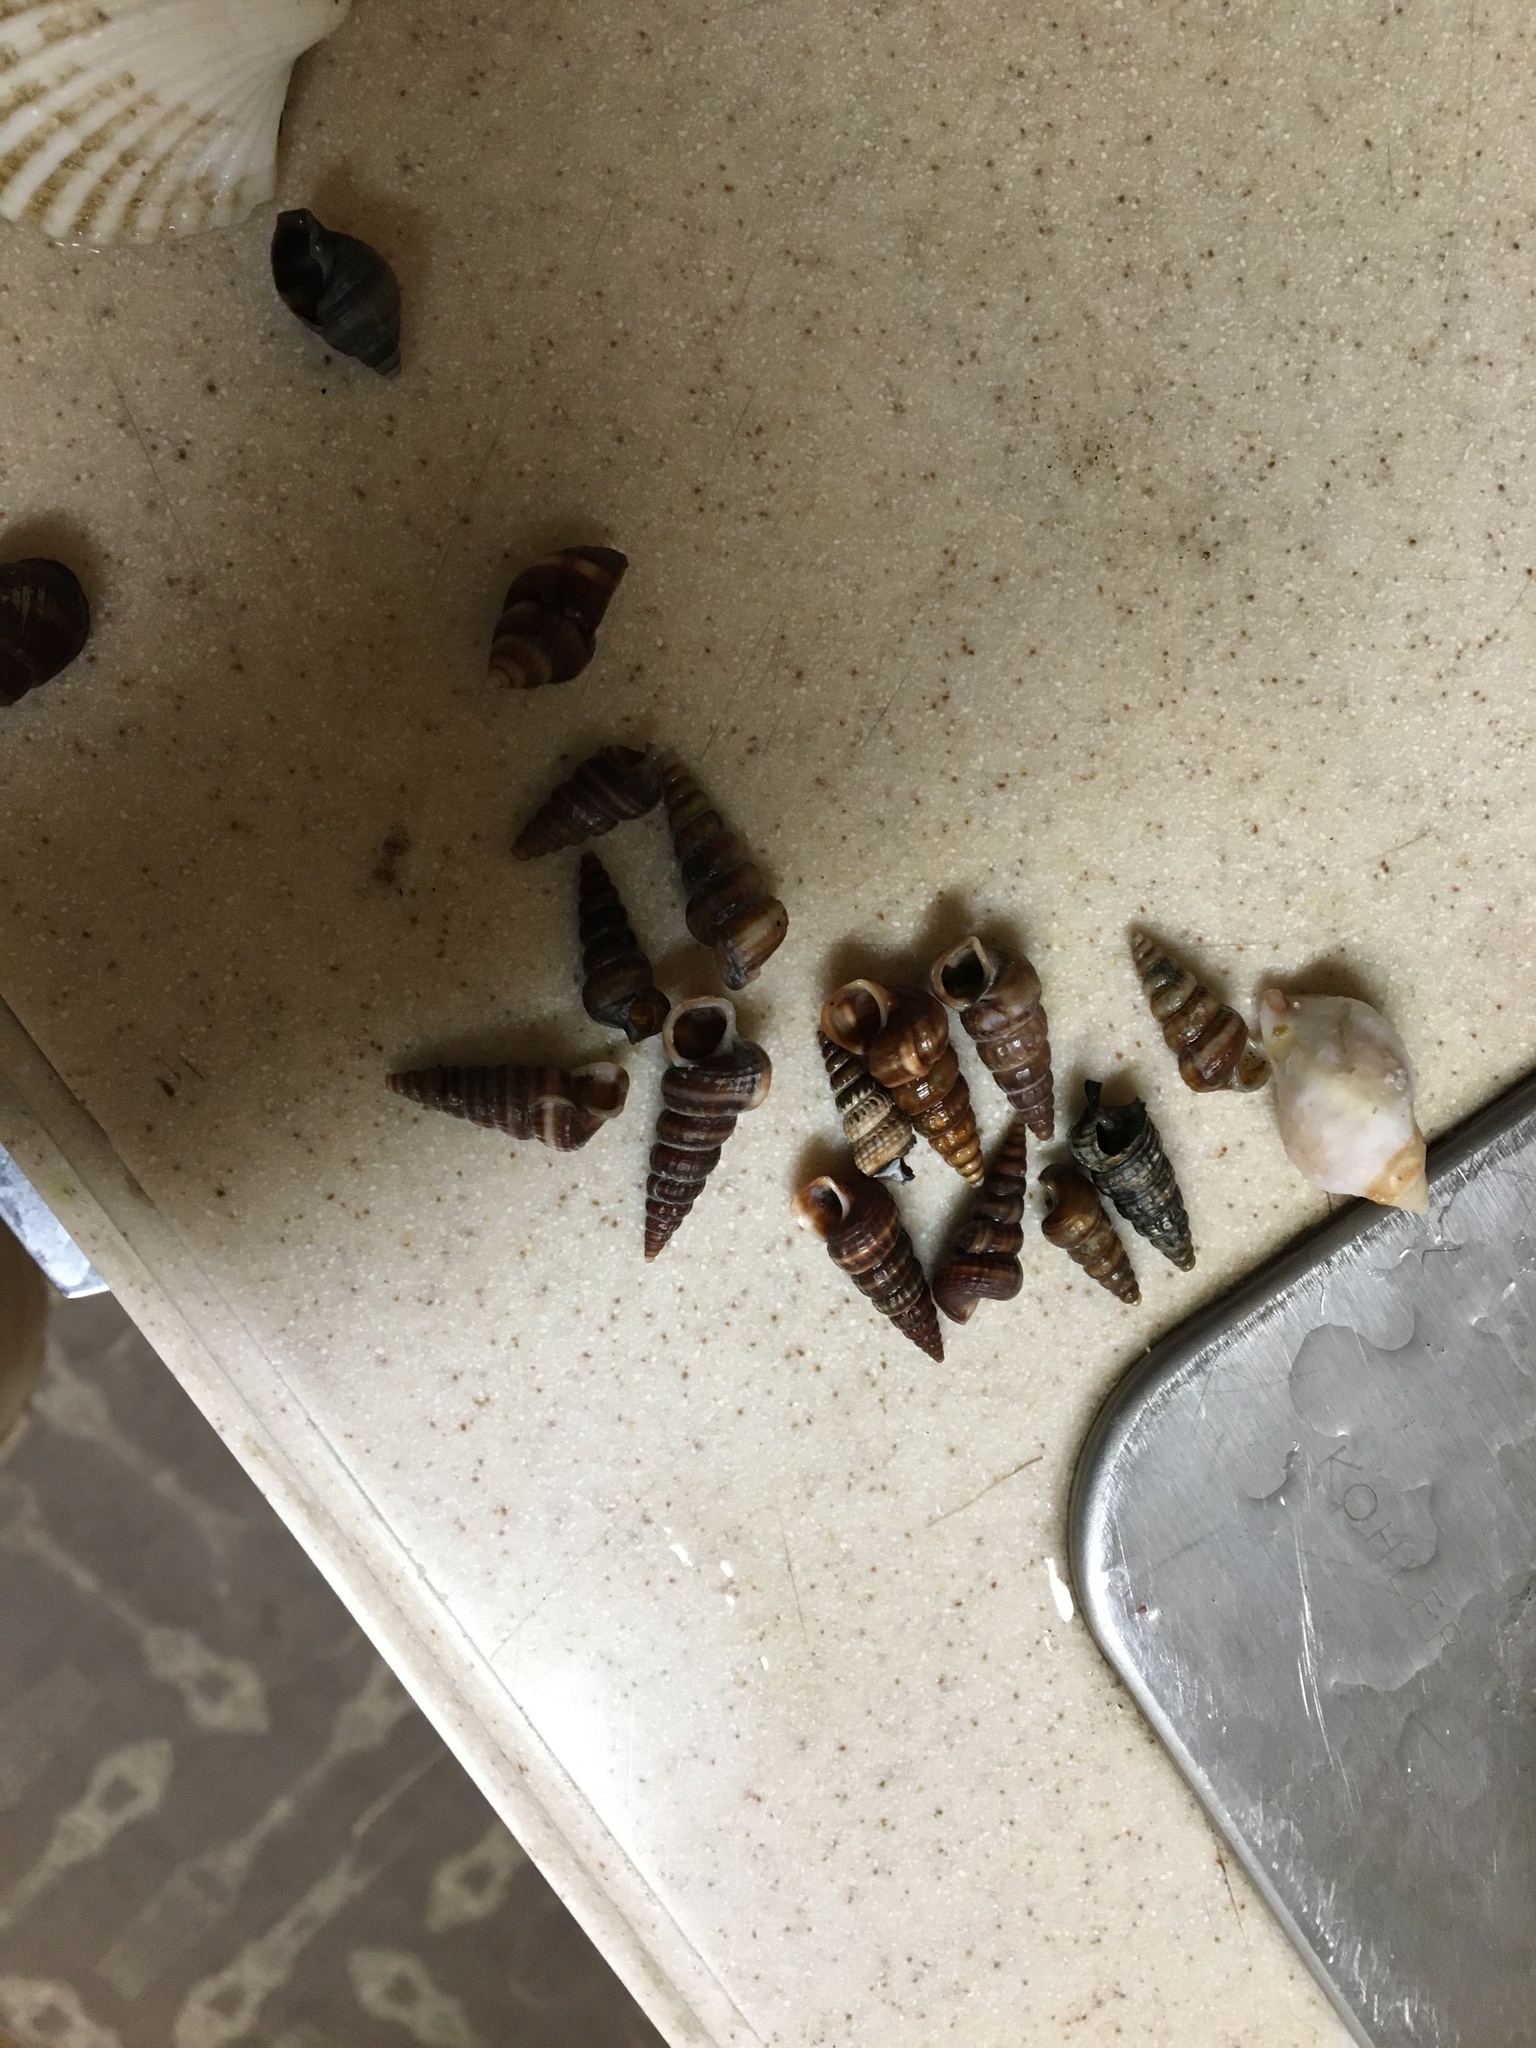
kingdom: Animalia
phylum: Mollusca
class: Gastropoda
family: Potamididae
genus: Cerithideopsis
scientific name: Cerithideopsis californica
